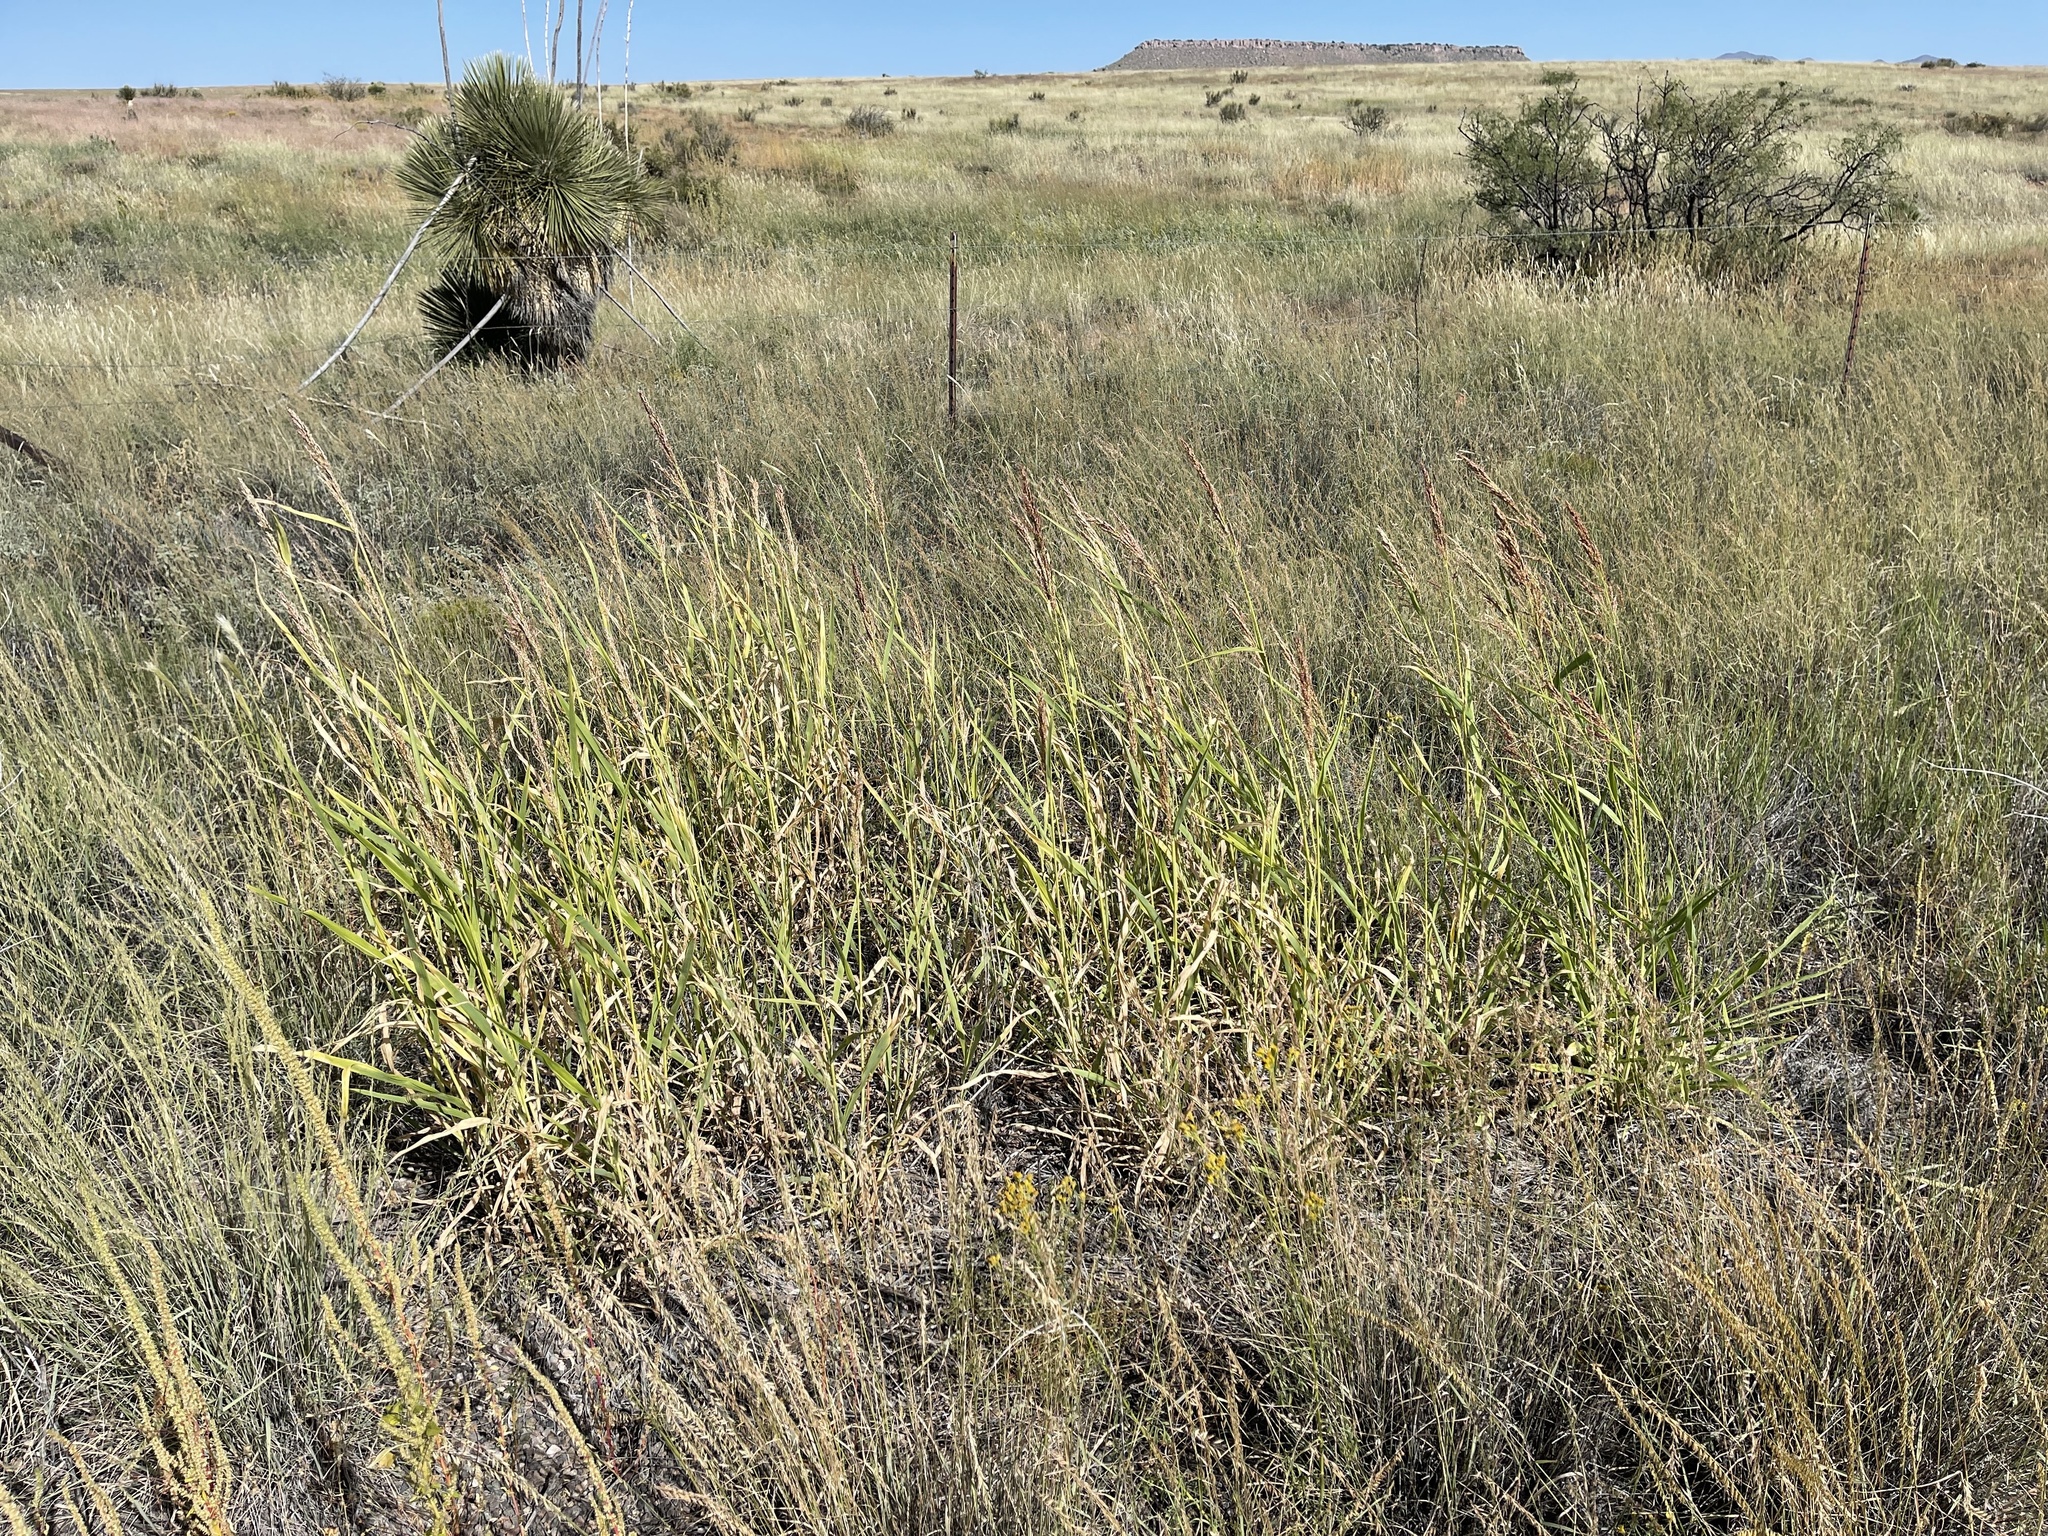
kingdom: Plantae
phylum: Tracheophyta
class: Liliopsida
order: Poales
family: Poaceae
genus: Sorghum
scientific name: Sorghum halepense
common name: Johnson-grass
